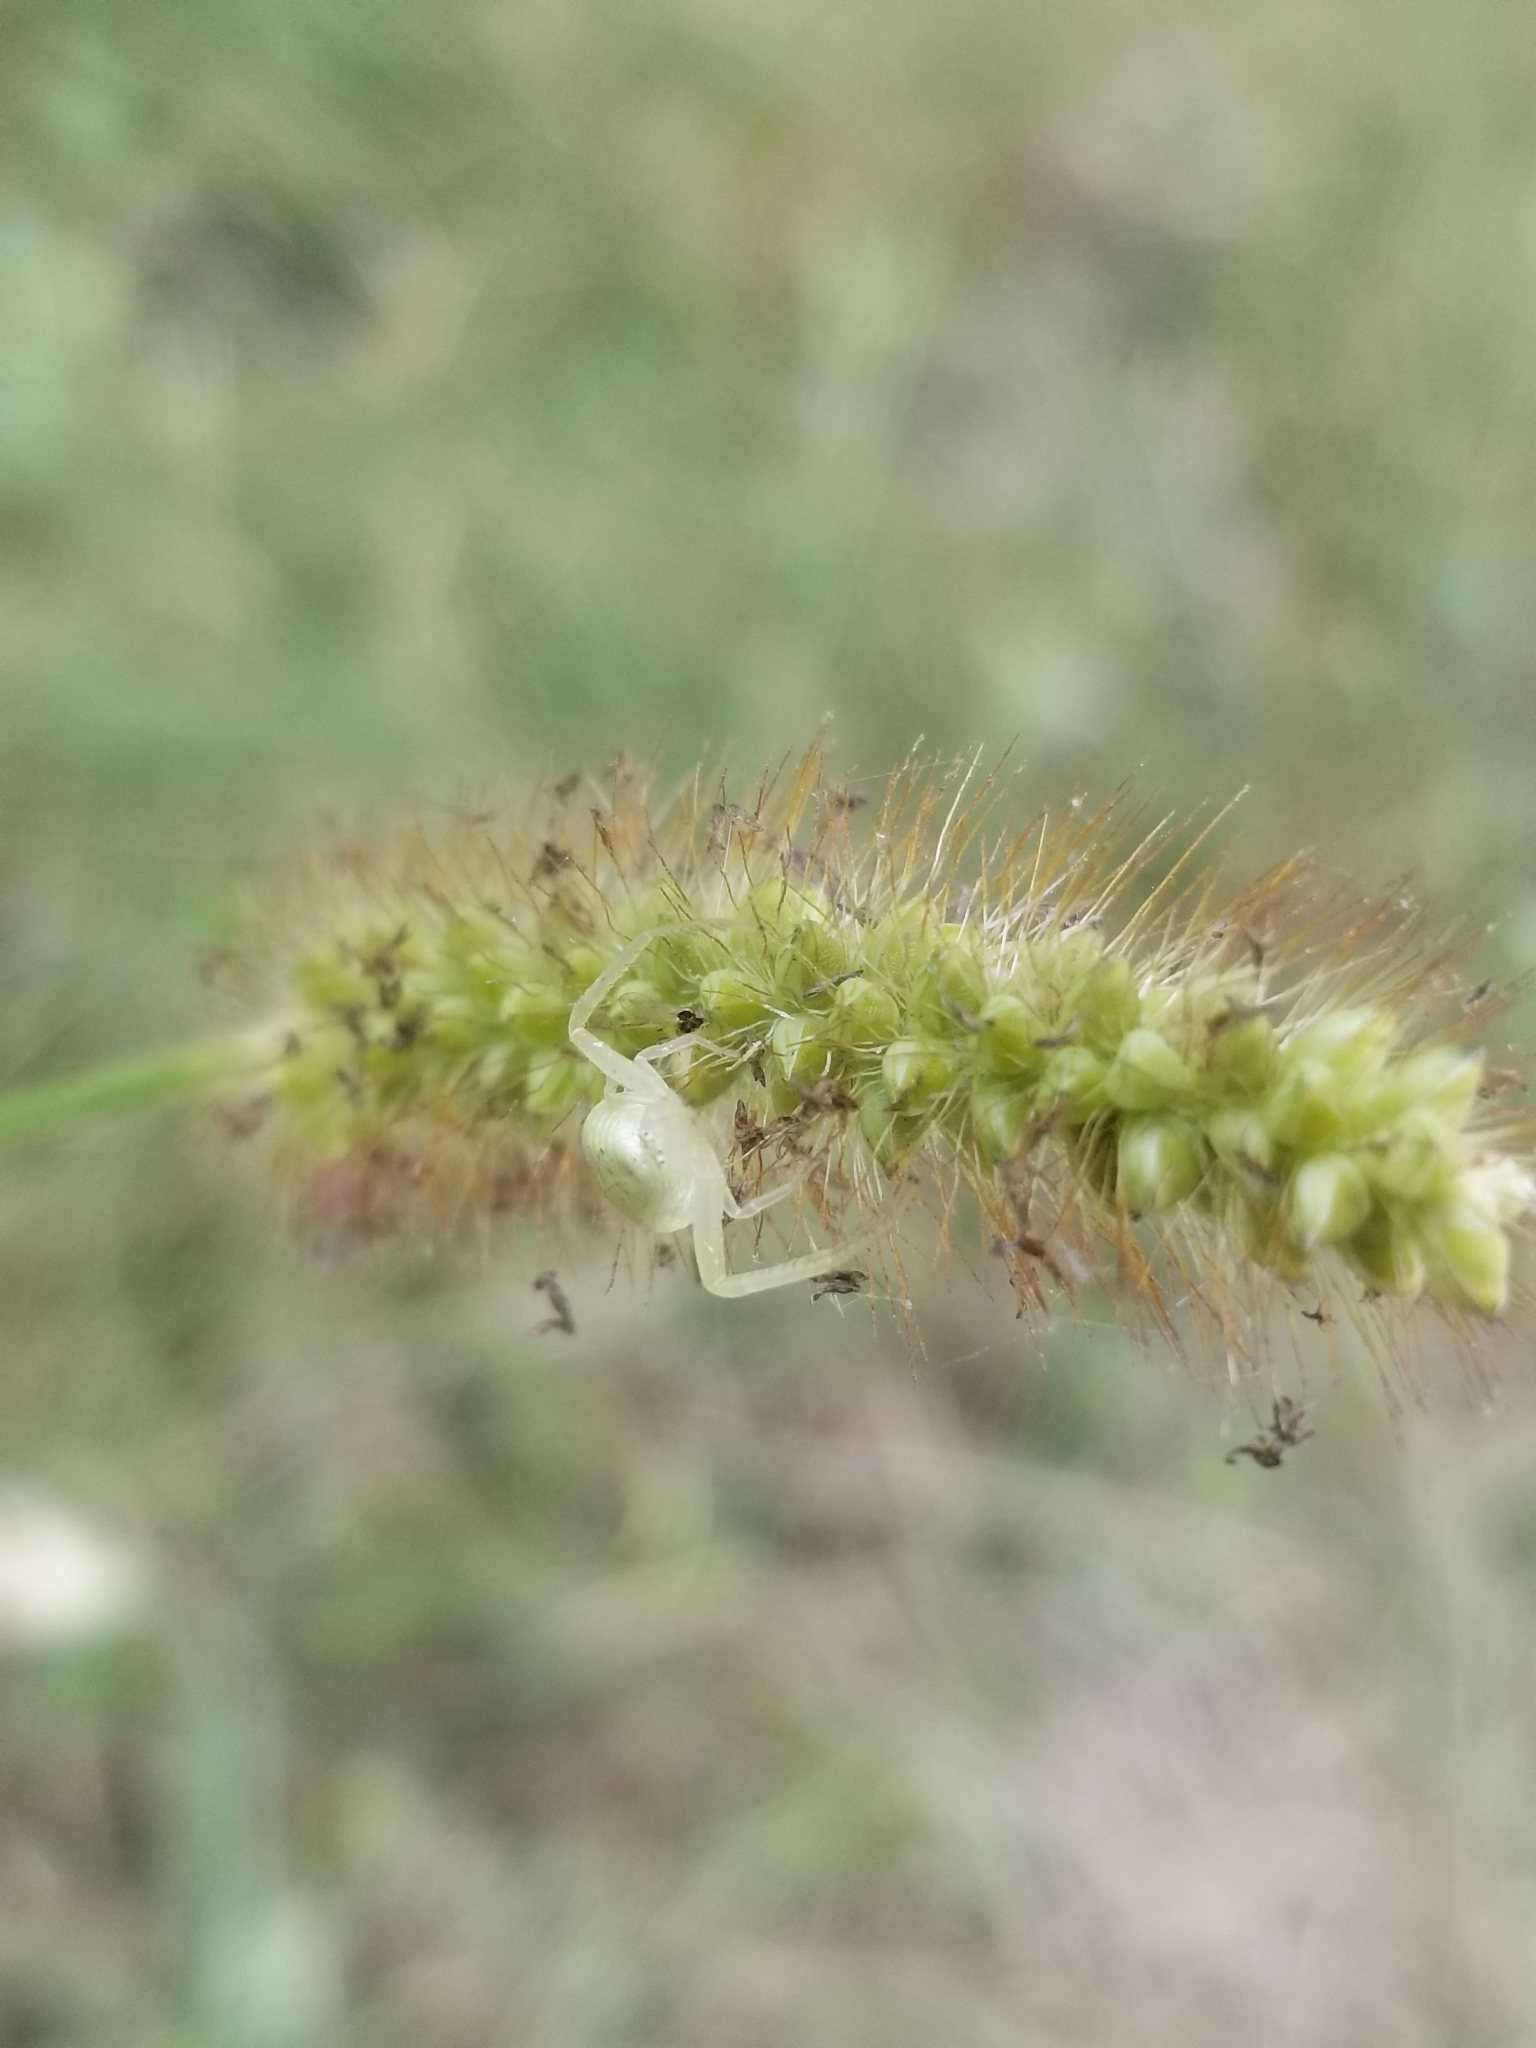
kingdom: Animalia
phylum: Arthropoda
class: Arachnida
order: Araneae
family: Thomisidae
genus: Misumessus
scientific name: Misumessus oblongus
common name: American green crab spider
